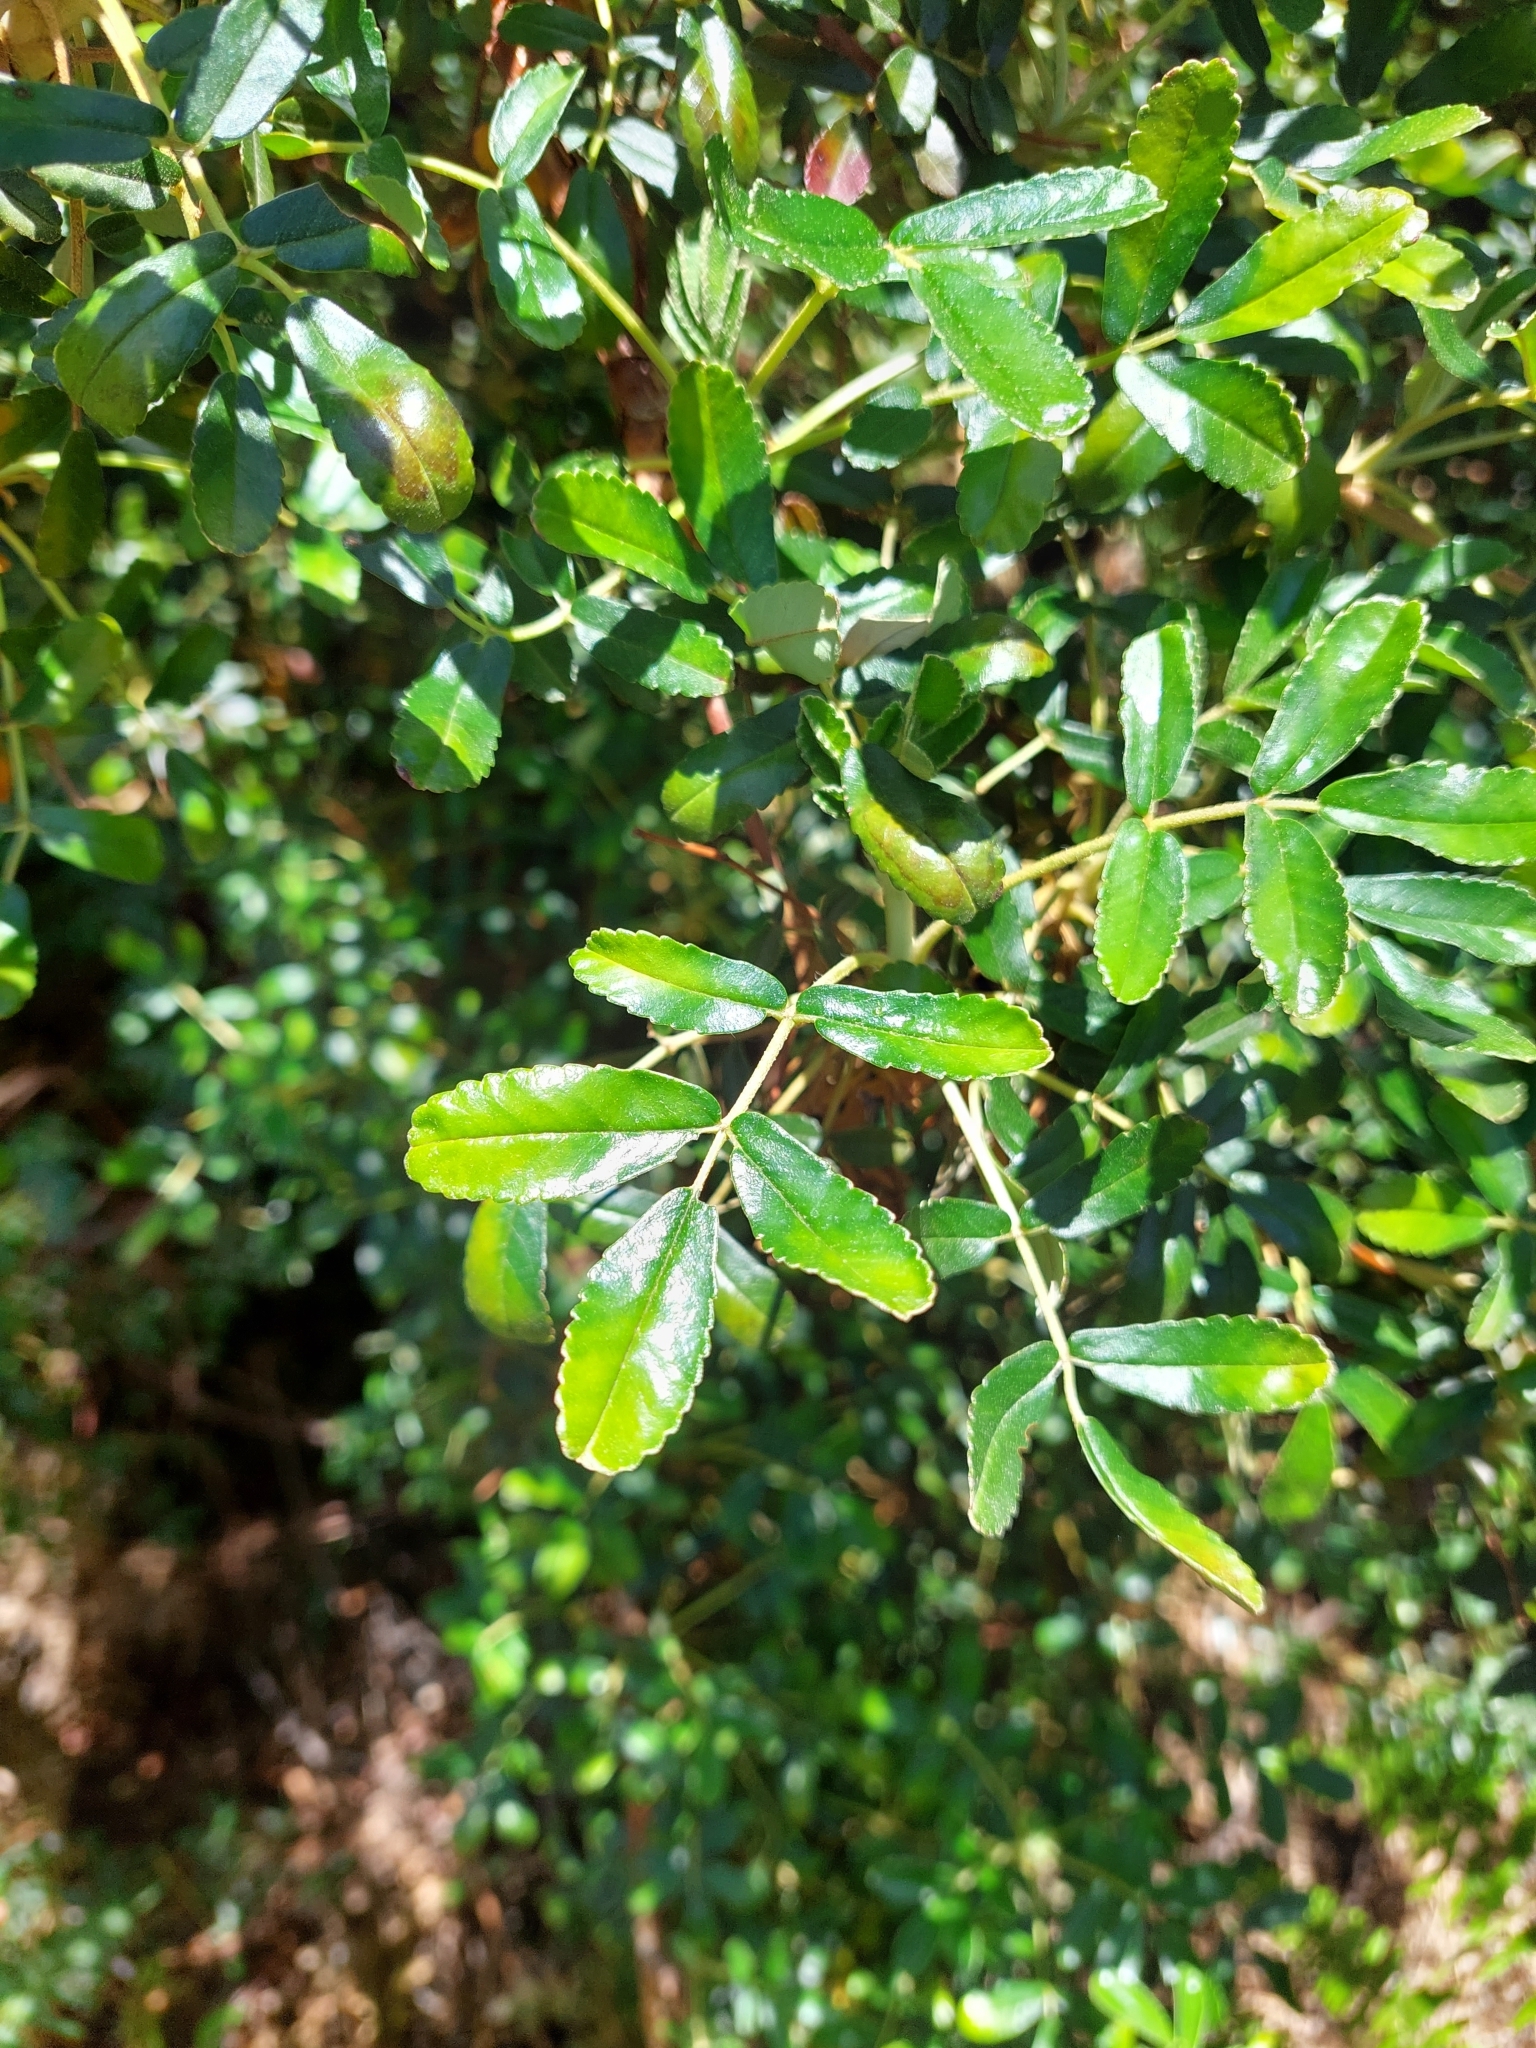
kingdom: Plantae
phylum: Tracheophyta
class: Magnoliopsida
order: Rosales
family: Rosaceae
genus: Polylepis
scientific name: Polylepis australis
